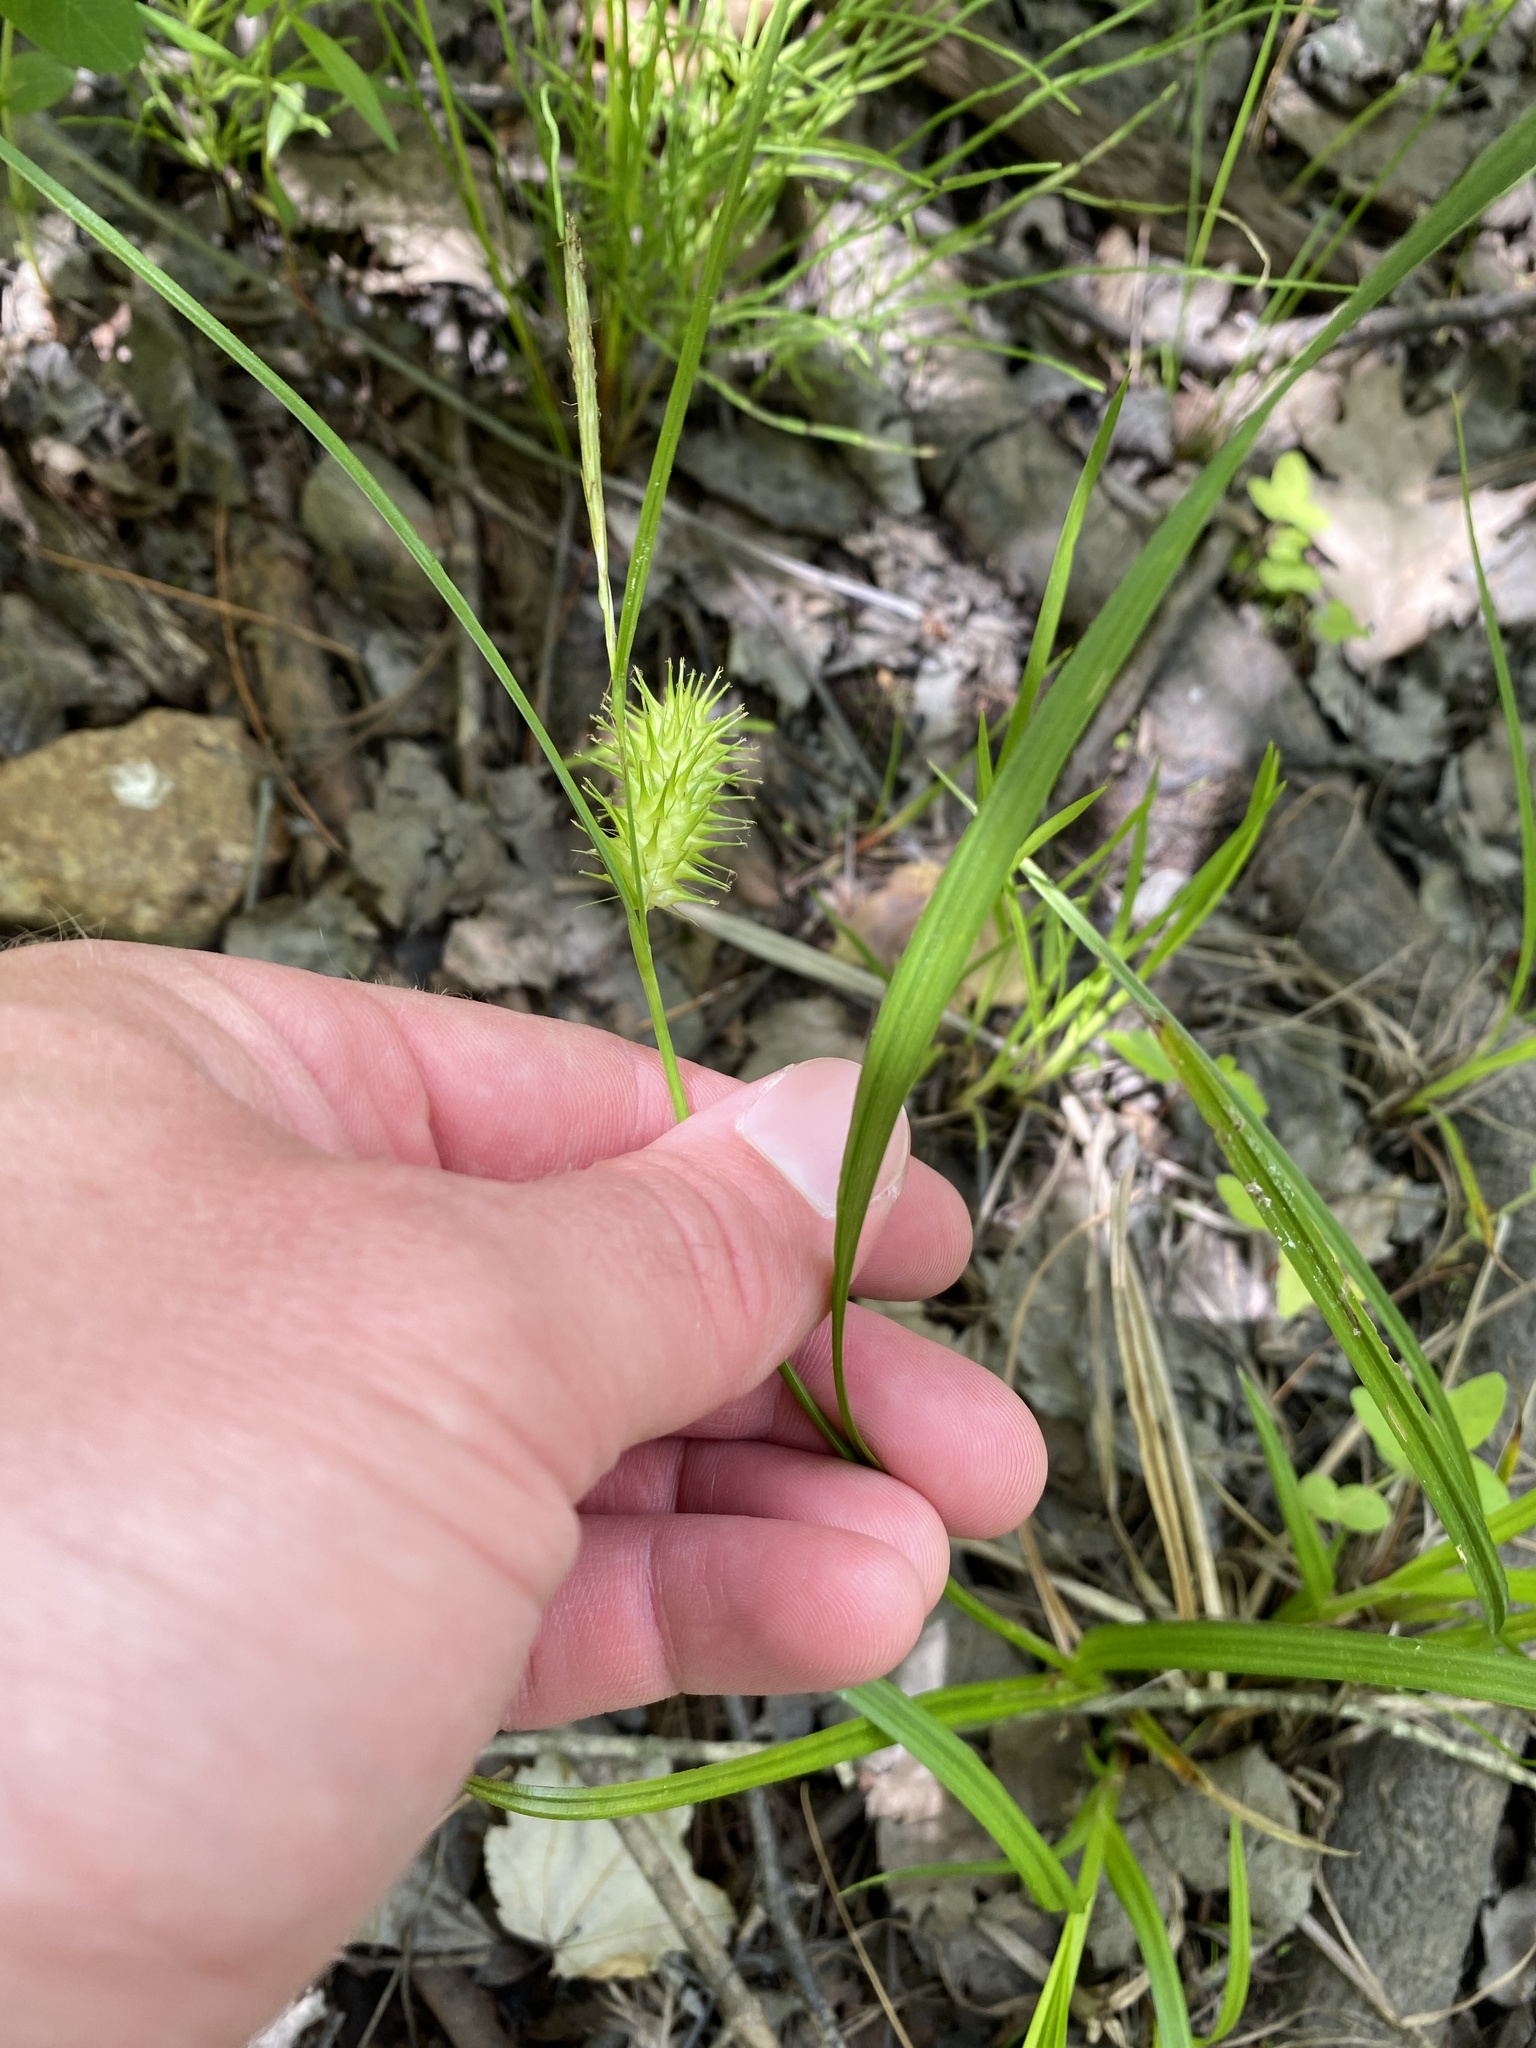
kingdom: Plantae
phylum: Tracheophyta
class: Liliopsida
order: Poales
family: Cyperaceae
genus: Carex
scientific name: Carex lurida
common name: Sallow sedge
